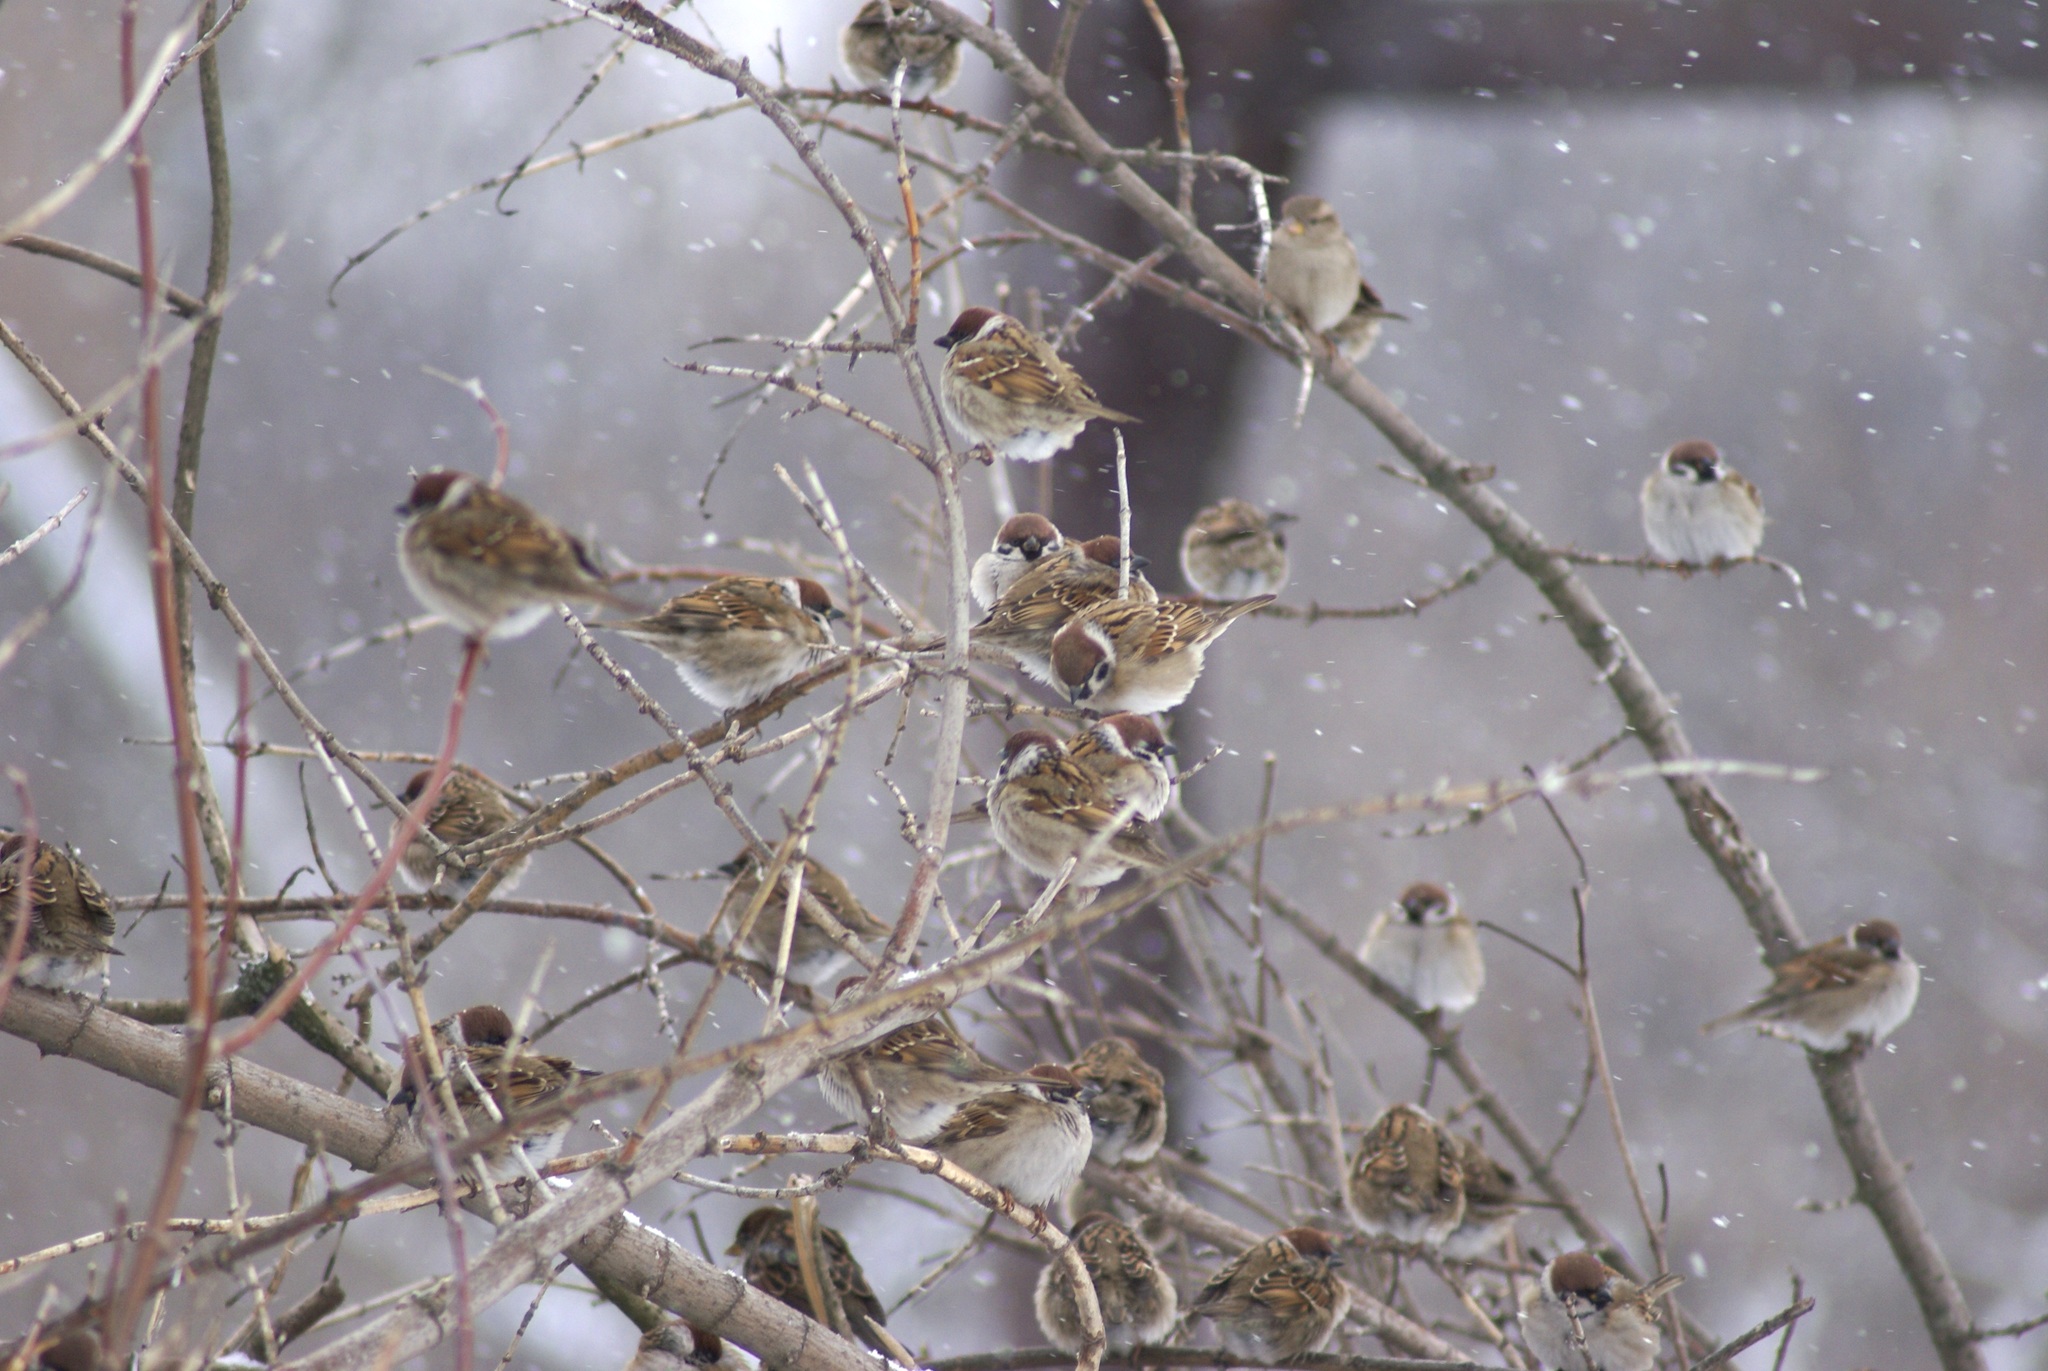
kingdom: Animalia
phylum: Chordata
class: Aves
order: Passeriformes
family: Passeridae
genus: Passer
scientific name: Passer montanus
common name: Eurasian tree sparrow
